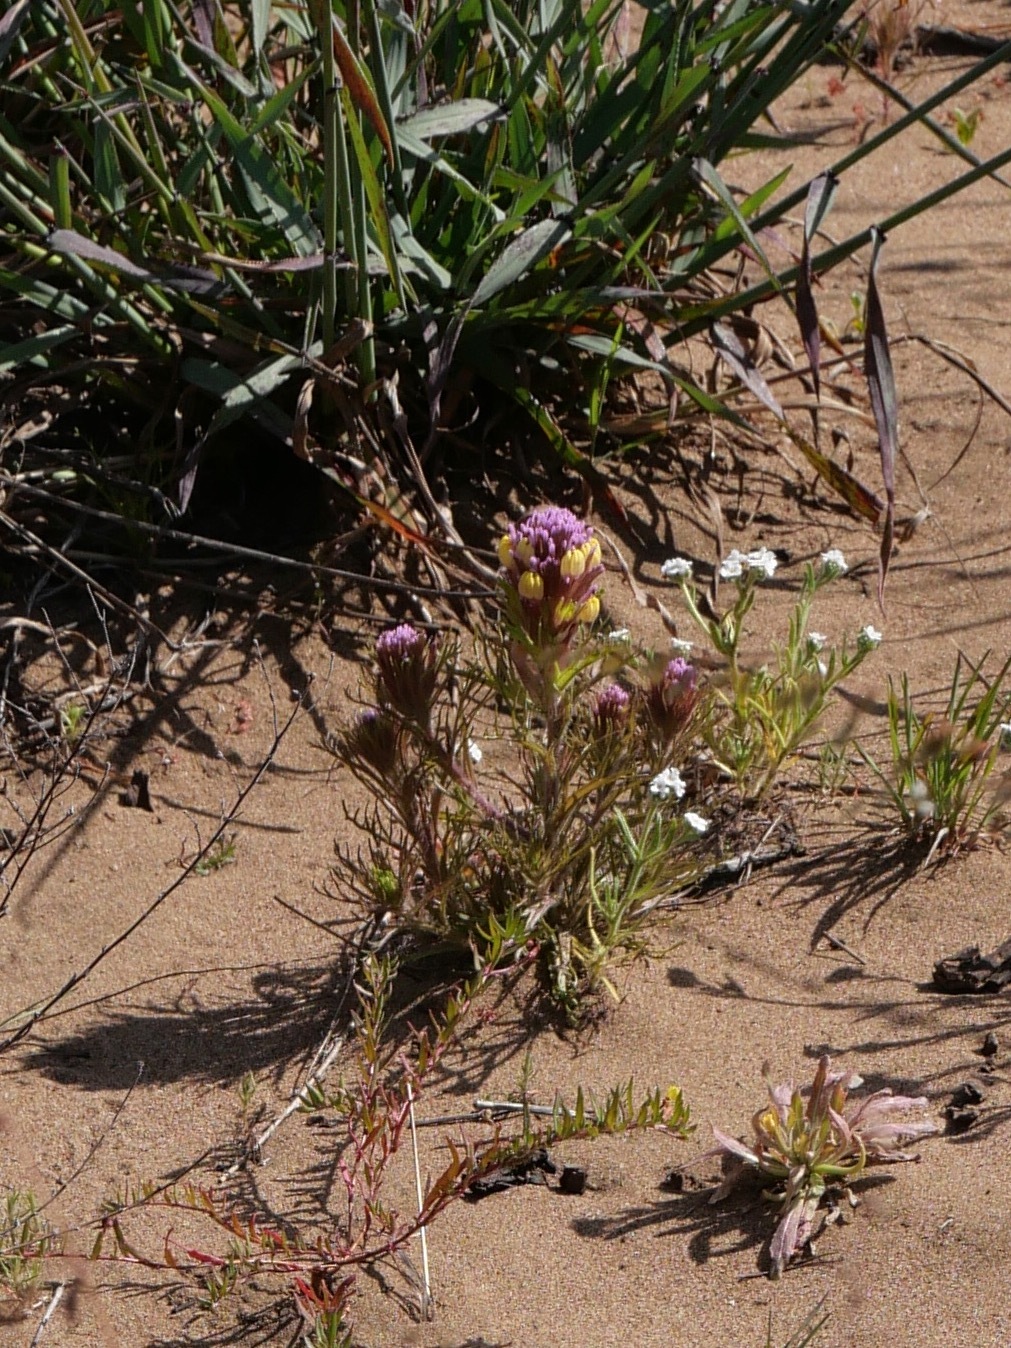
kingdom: Plantae
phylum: Tracheophyta
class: Magnoliopsida
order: Lamiales
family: Orobanchaceae
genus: Castilleja
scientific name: Castilleja exserta
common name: Purple owl-clover
